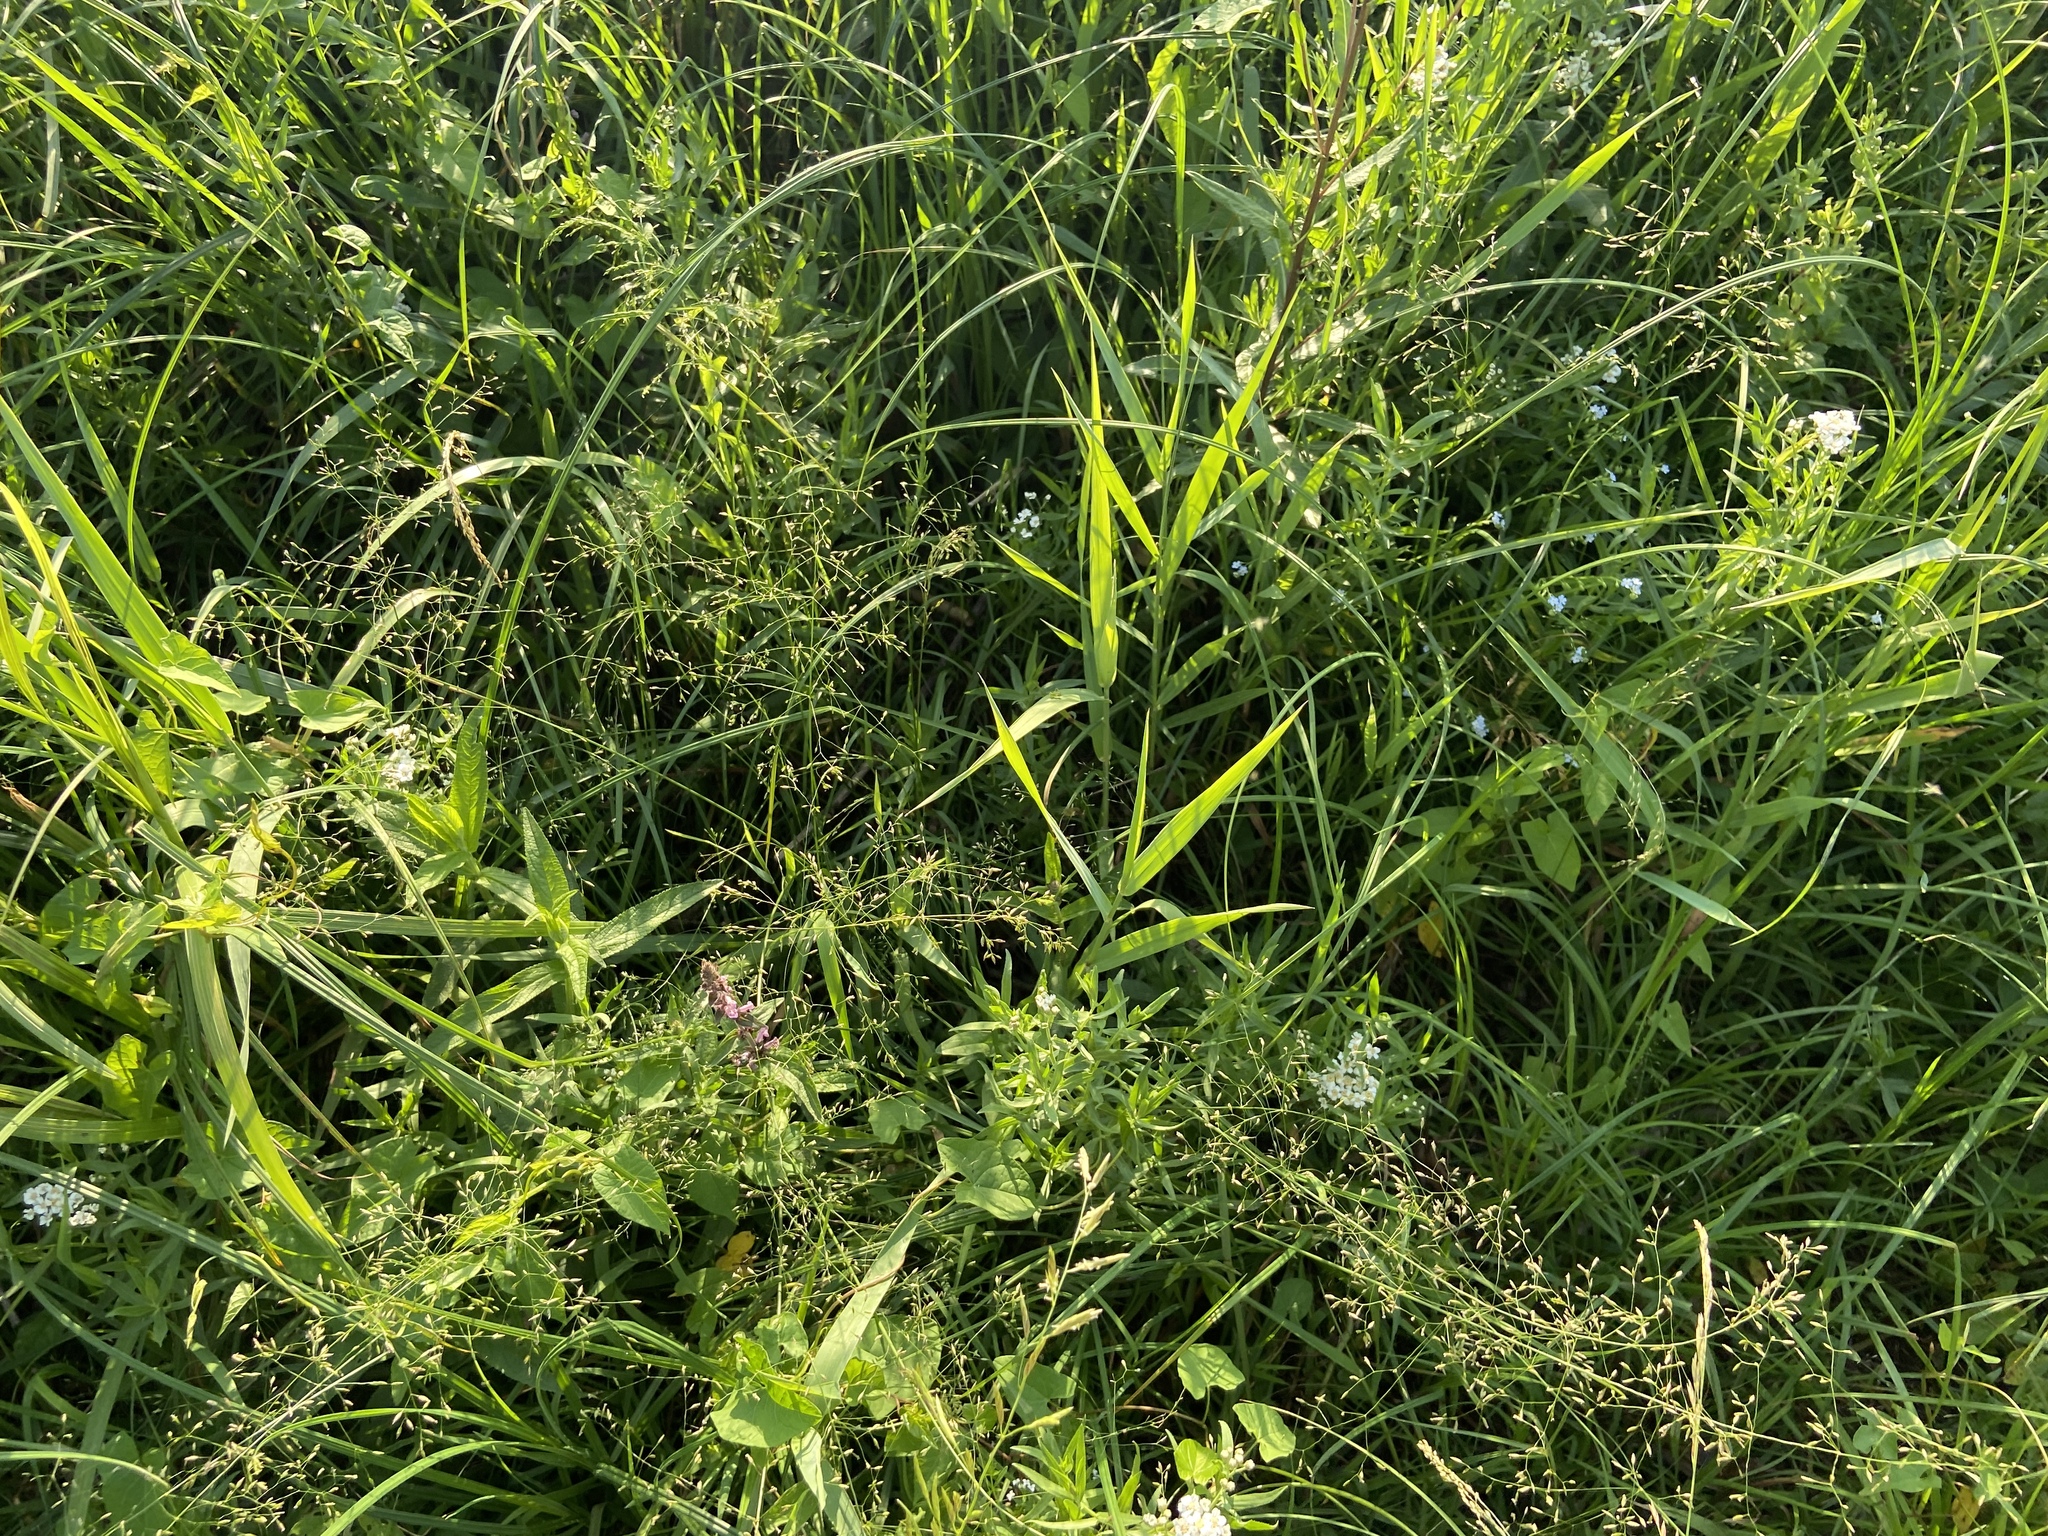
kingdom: Plantae
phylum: Tracheophyta
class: Liliopsida
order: Poales
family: Poaceae
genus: Poa
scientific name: Poa palustris
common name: Swamp meadow-grass
